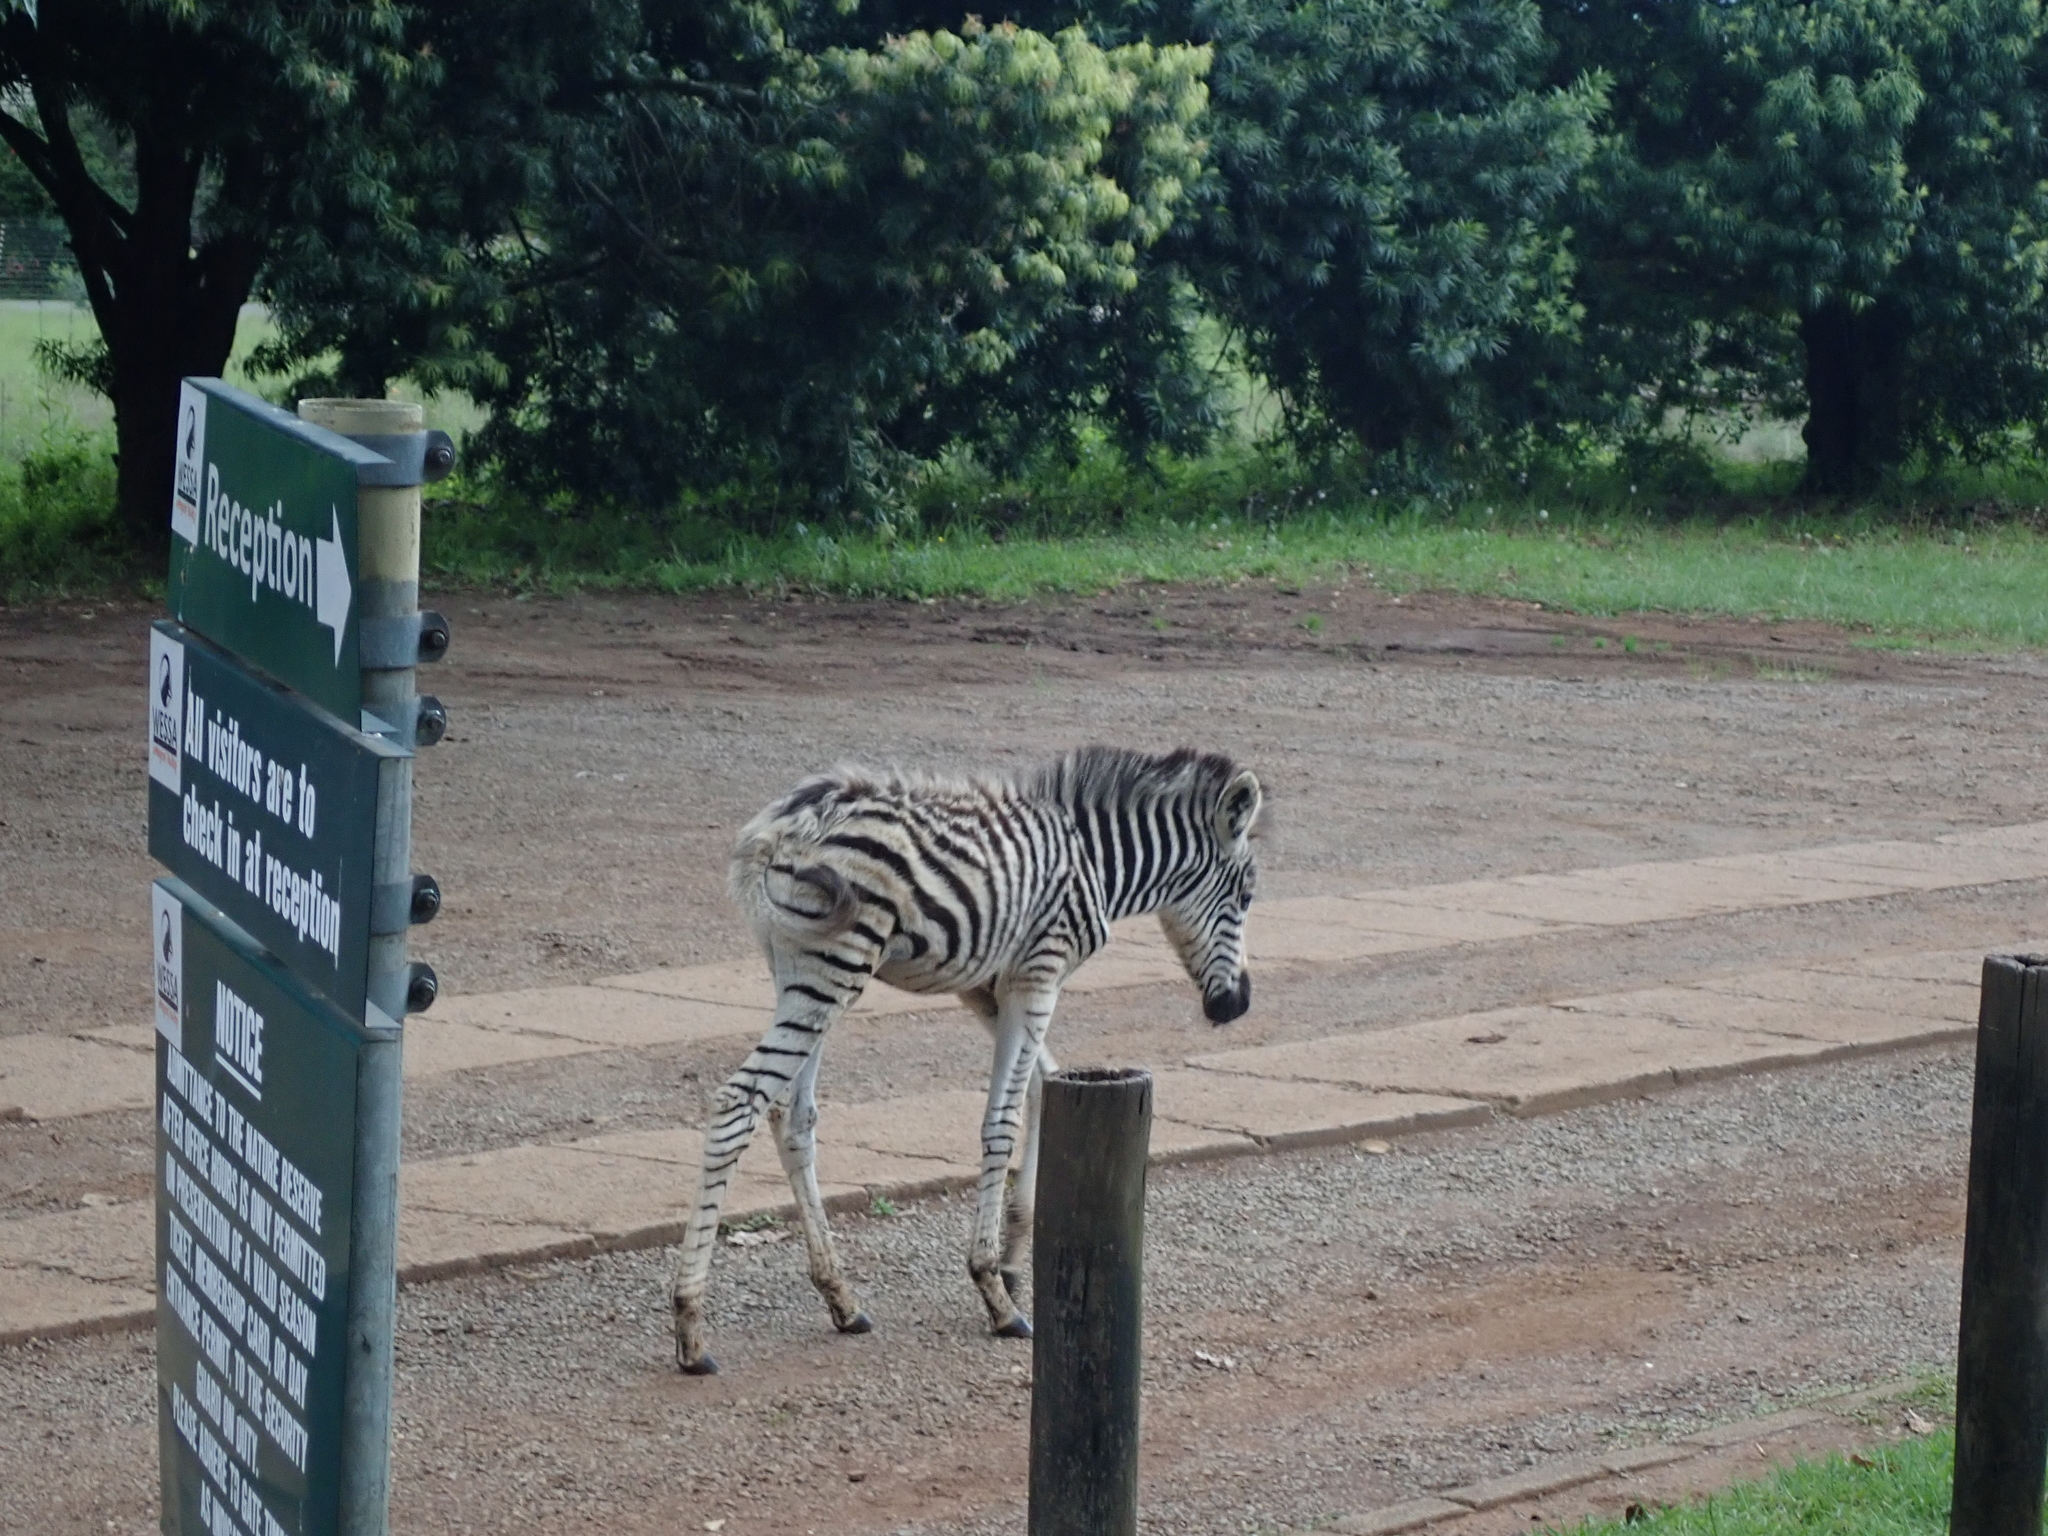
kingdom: Animalia
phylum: Chordata
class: Mammalia
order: Perissodactyla
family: Equidae
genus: Equus
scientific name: Equus quagga
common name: Plains zebra
